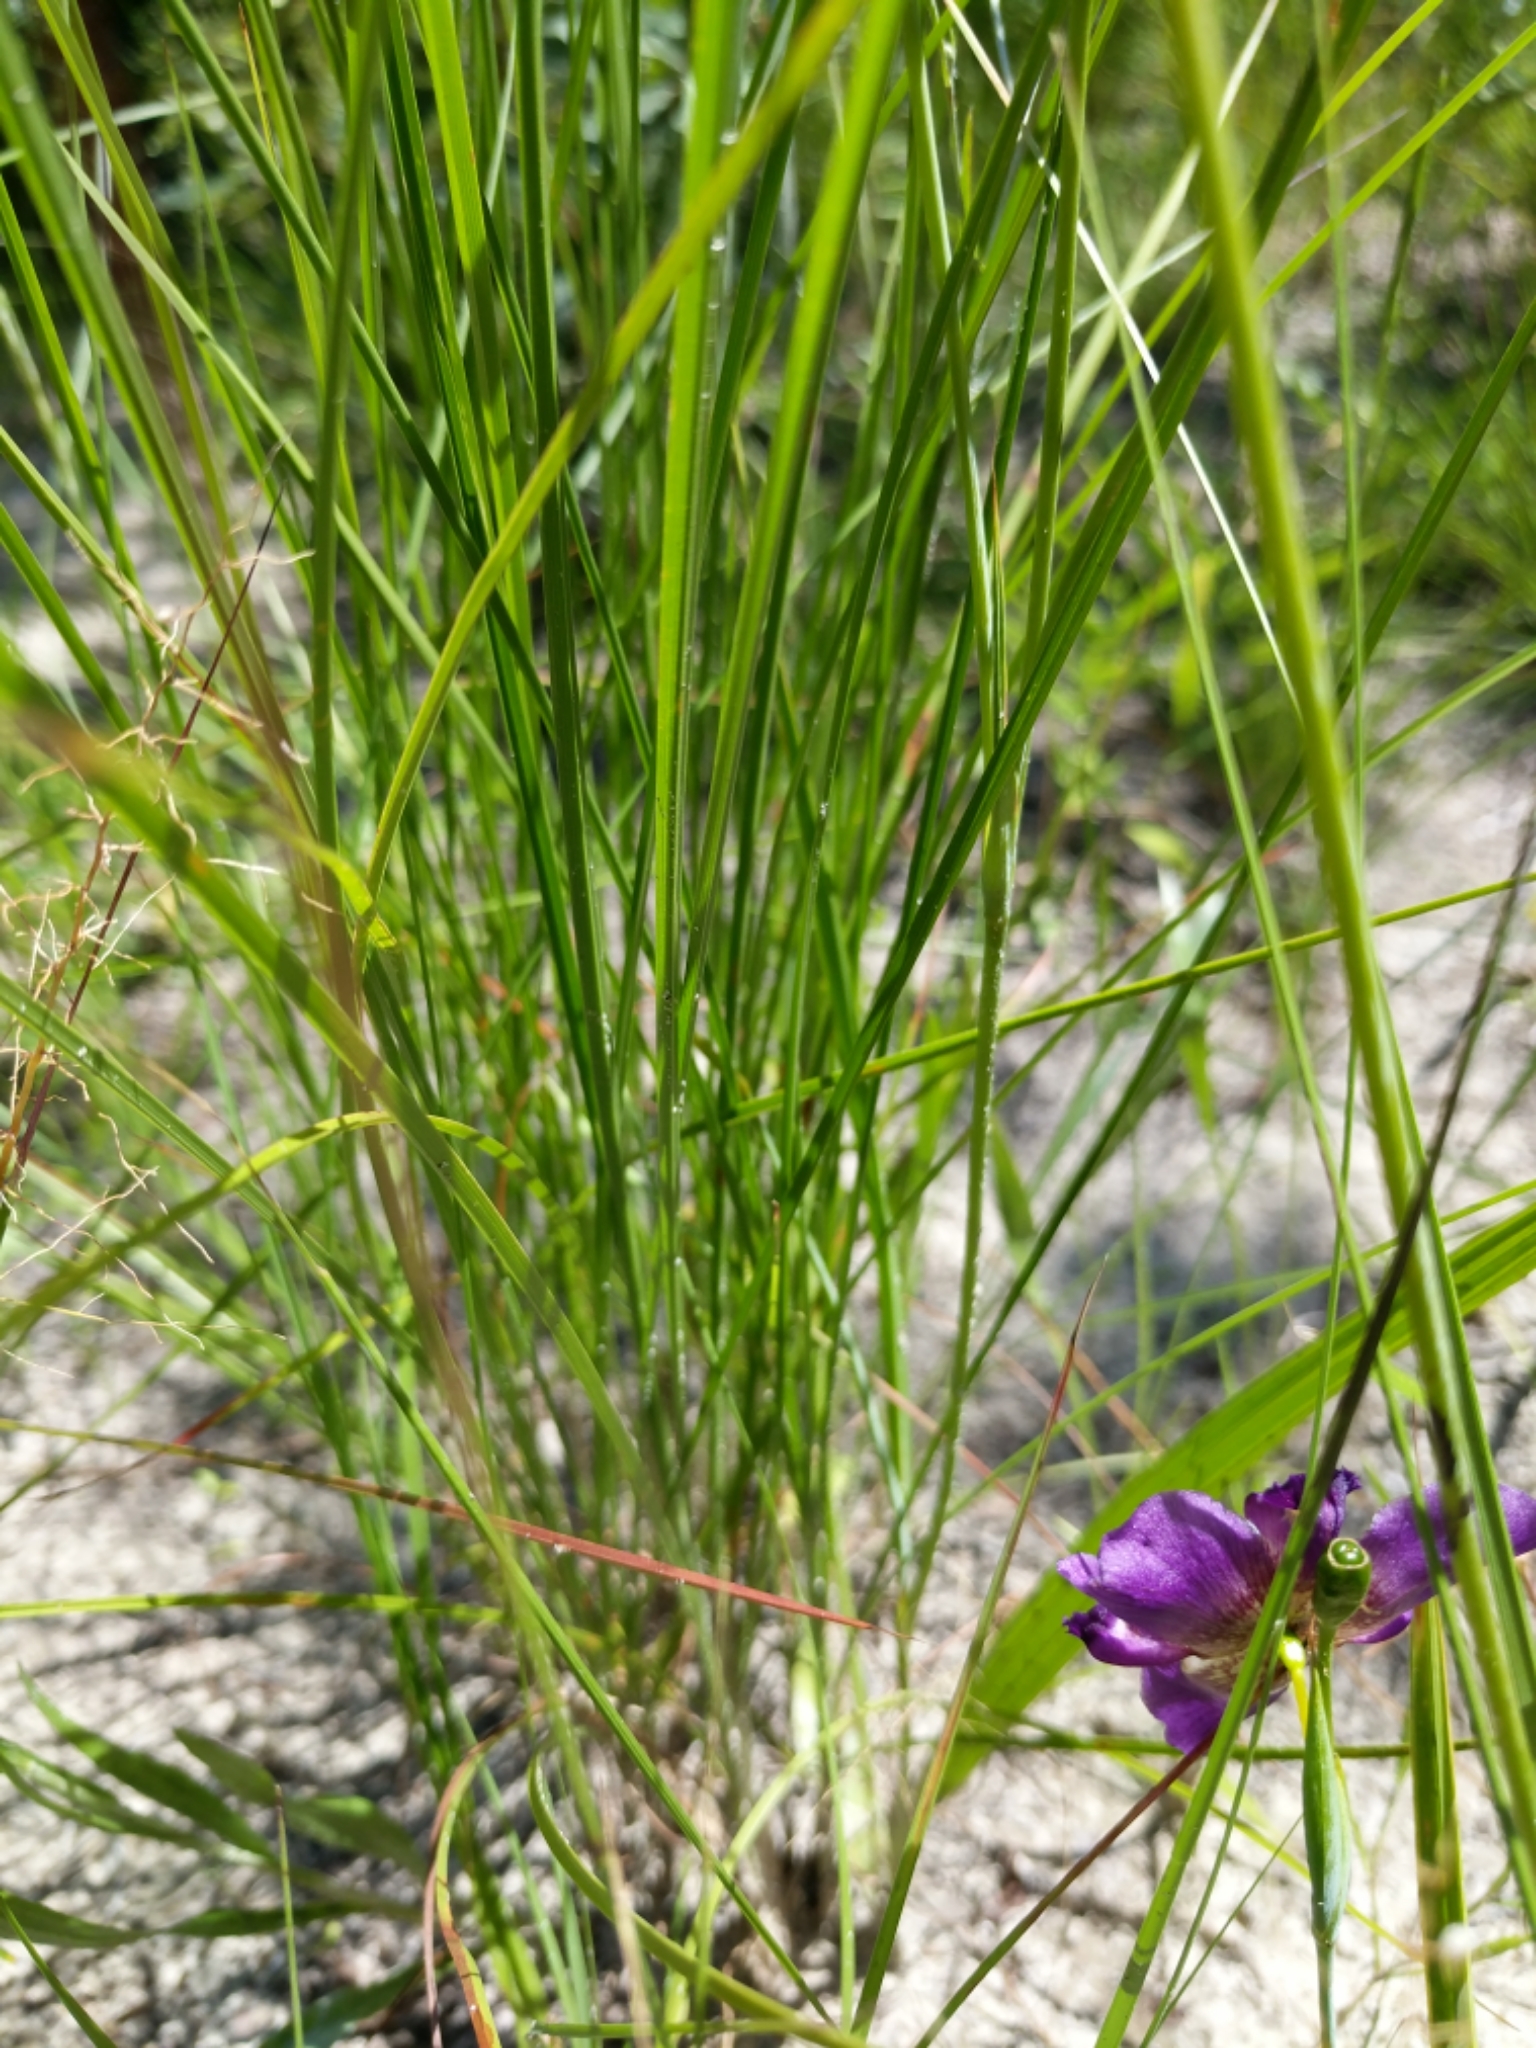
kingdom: Plantae
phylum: Tracheophyta
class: Liliopsida
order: Asparagales
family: Iridaceae
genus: Alophia
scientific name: Alophia drummondii
